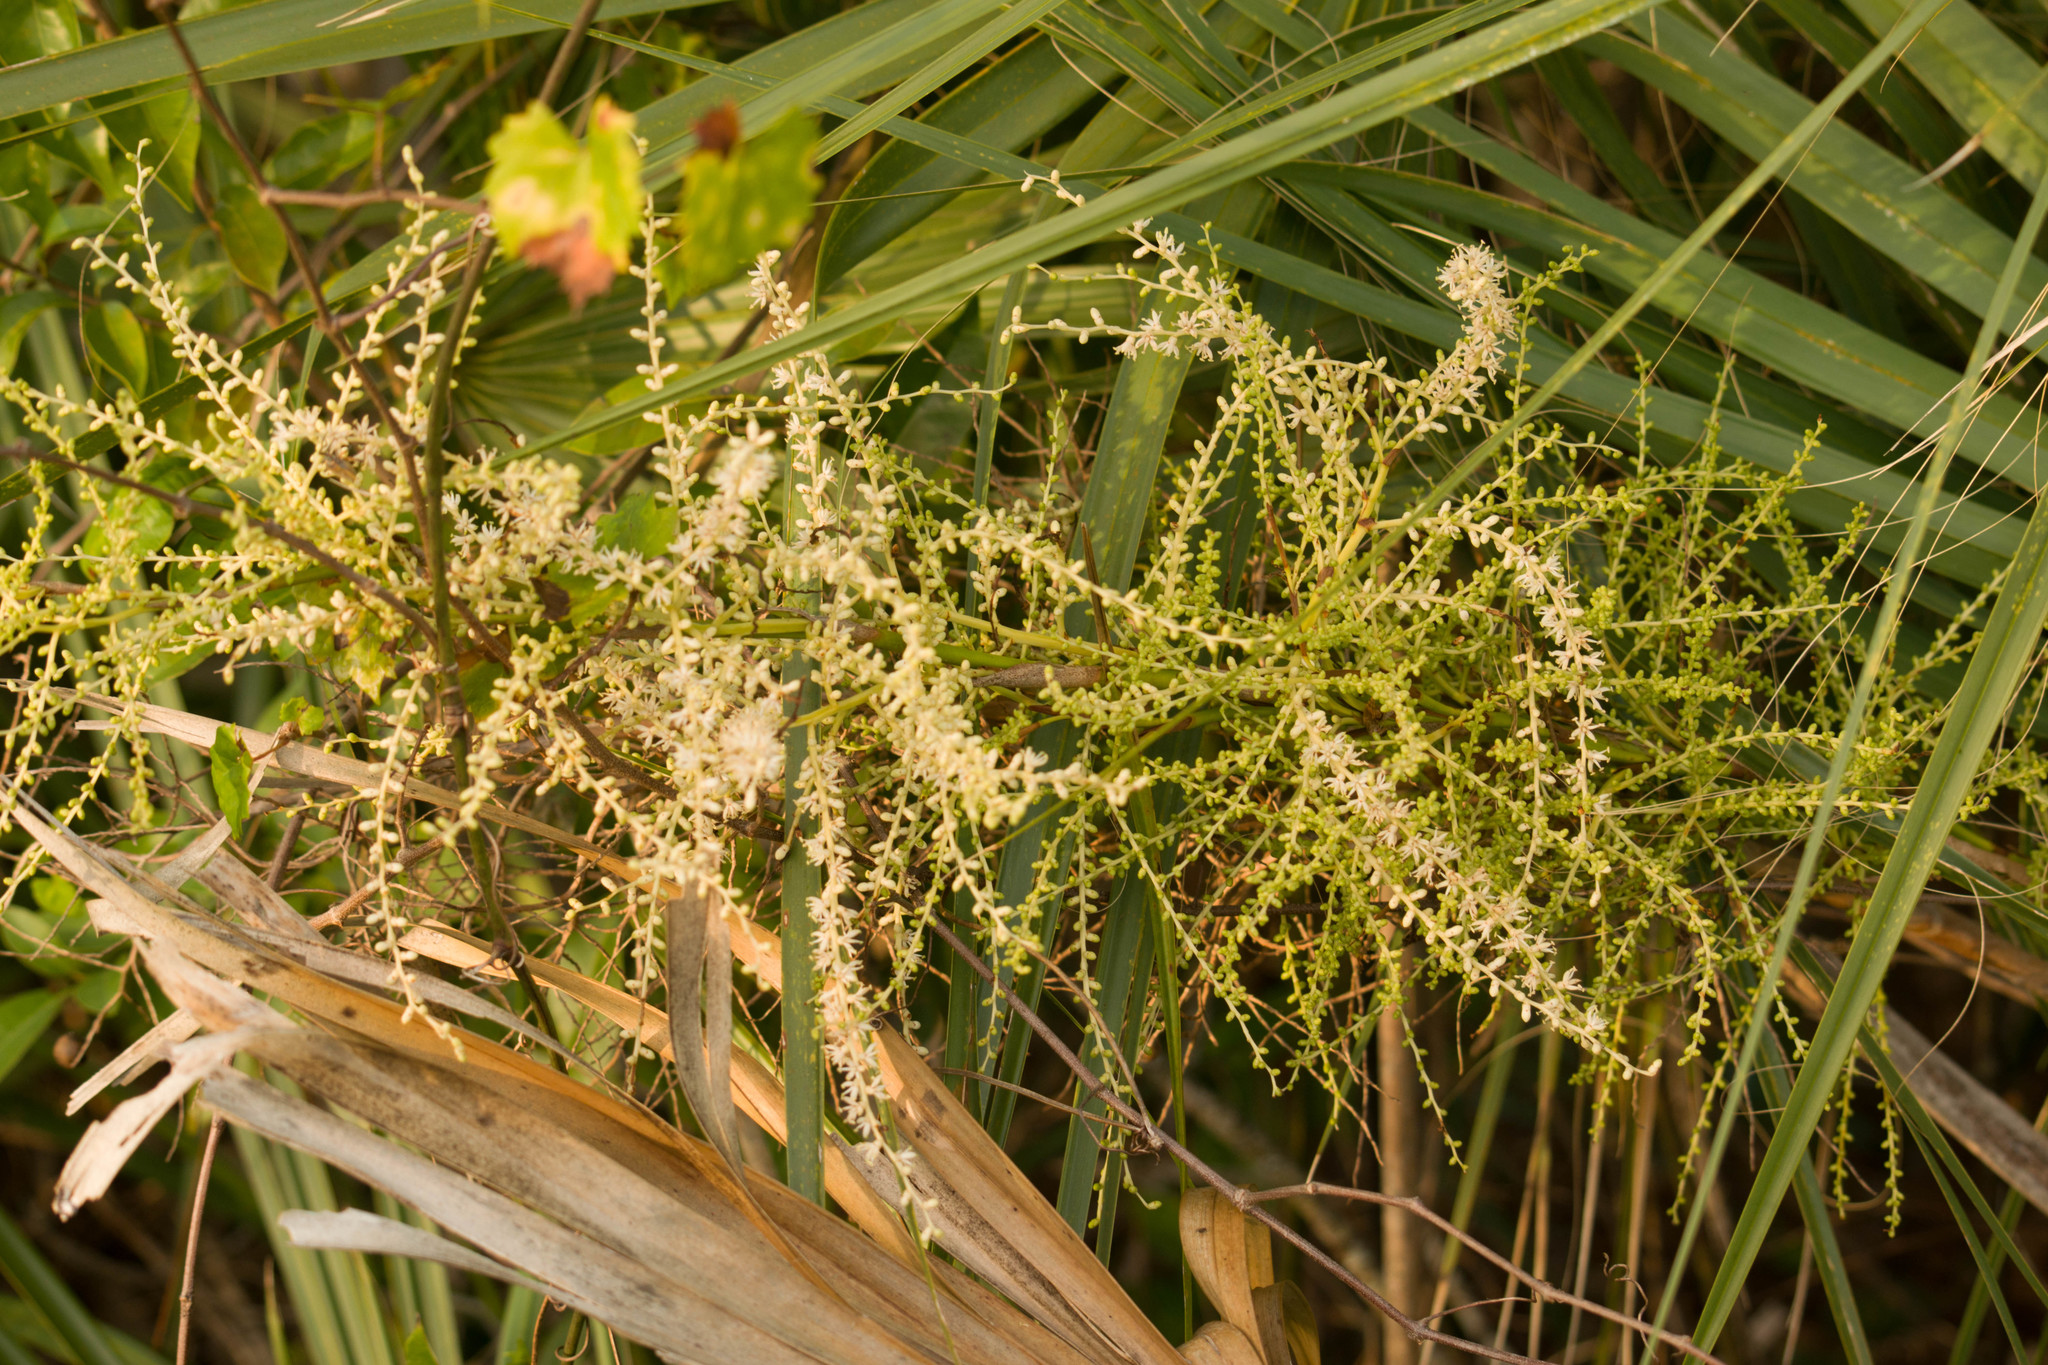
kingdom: Plantae
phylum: Tracheophyta
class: Liliopsida
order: Arecales
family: Arecaceae
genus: Sabal
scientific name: Sabal palmetto
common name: Blue palmetto
